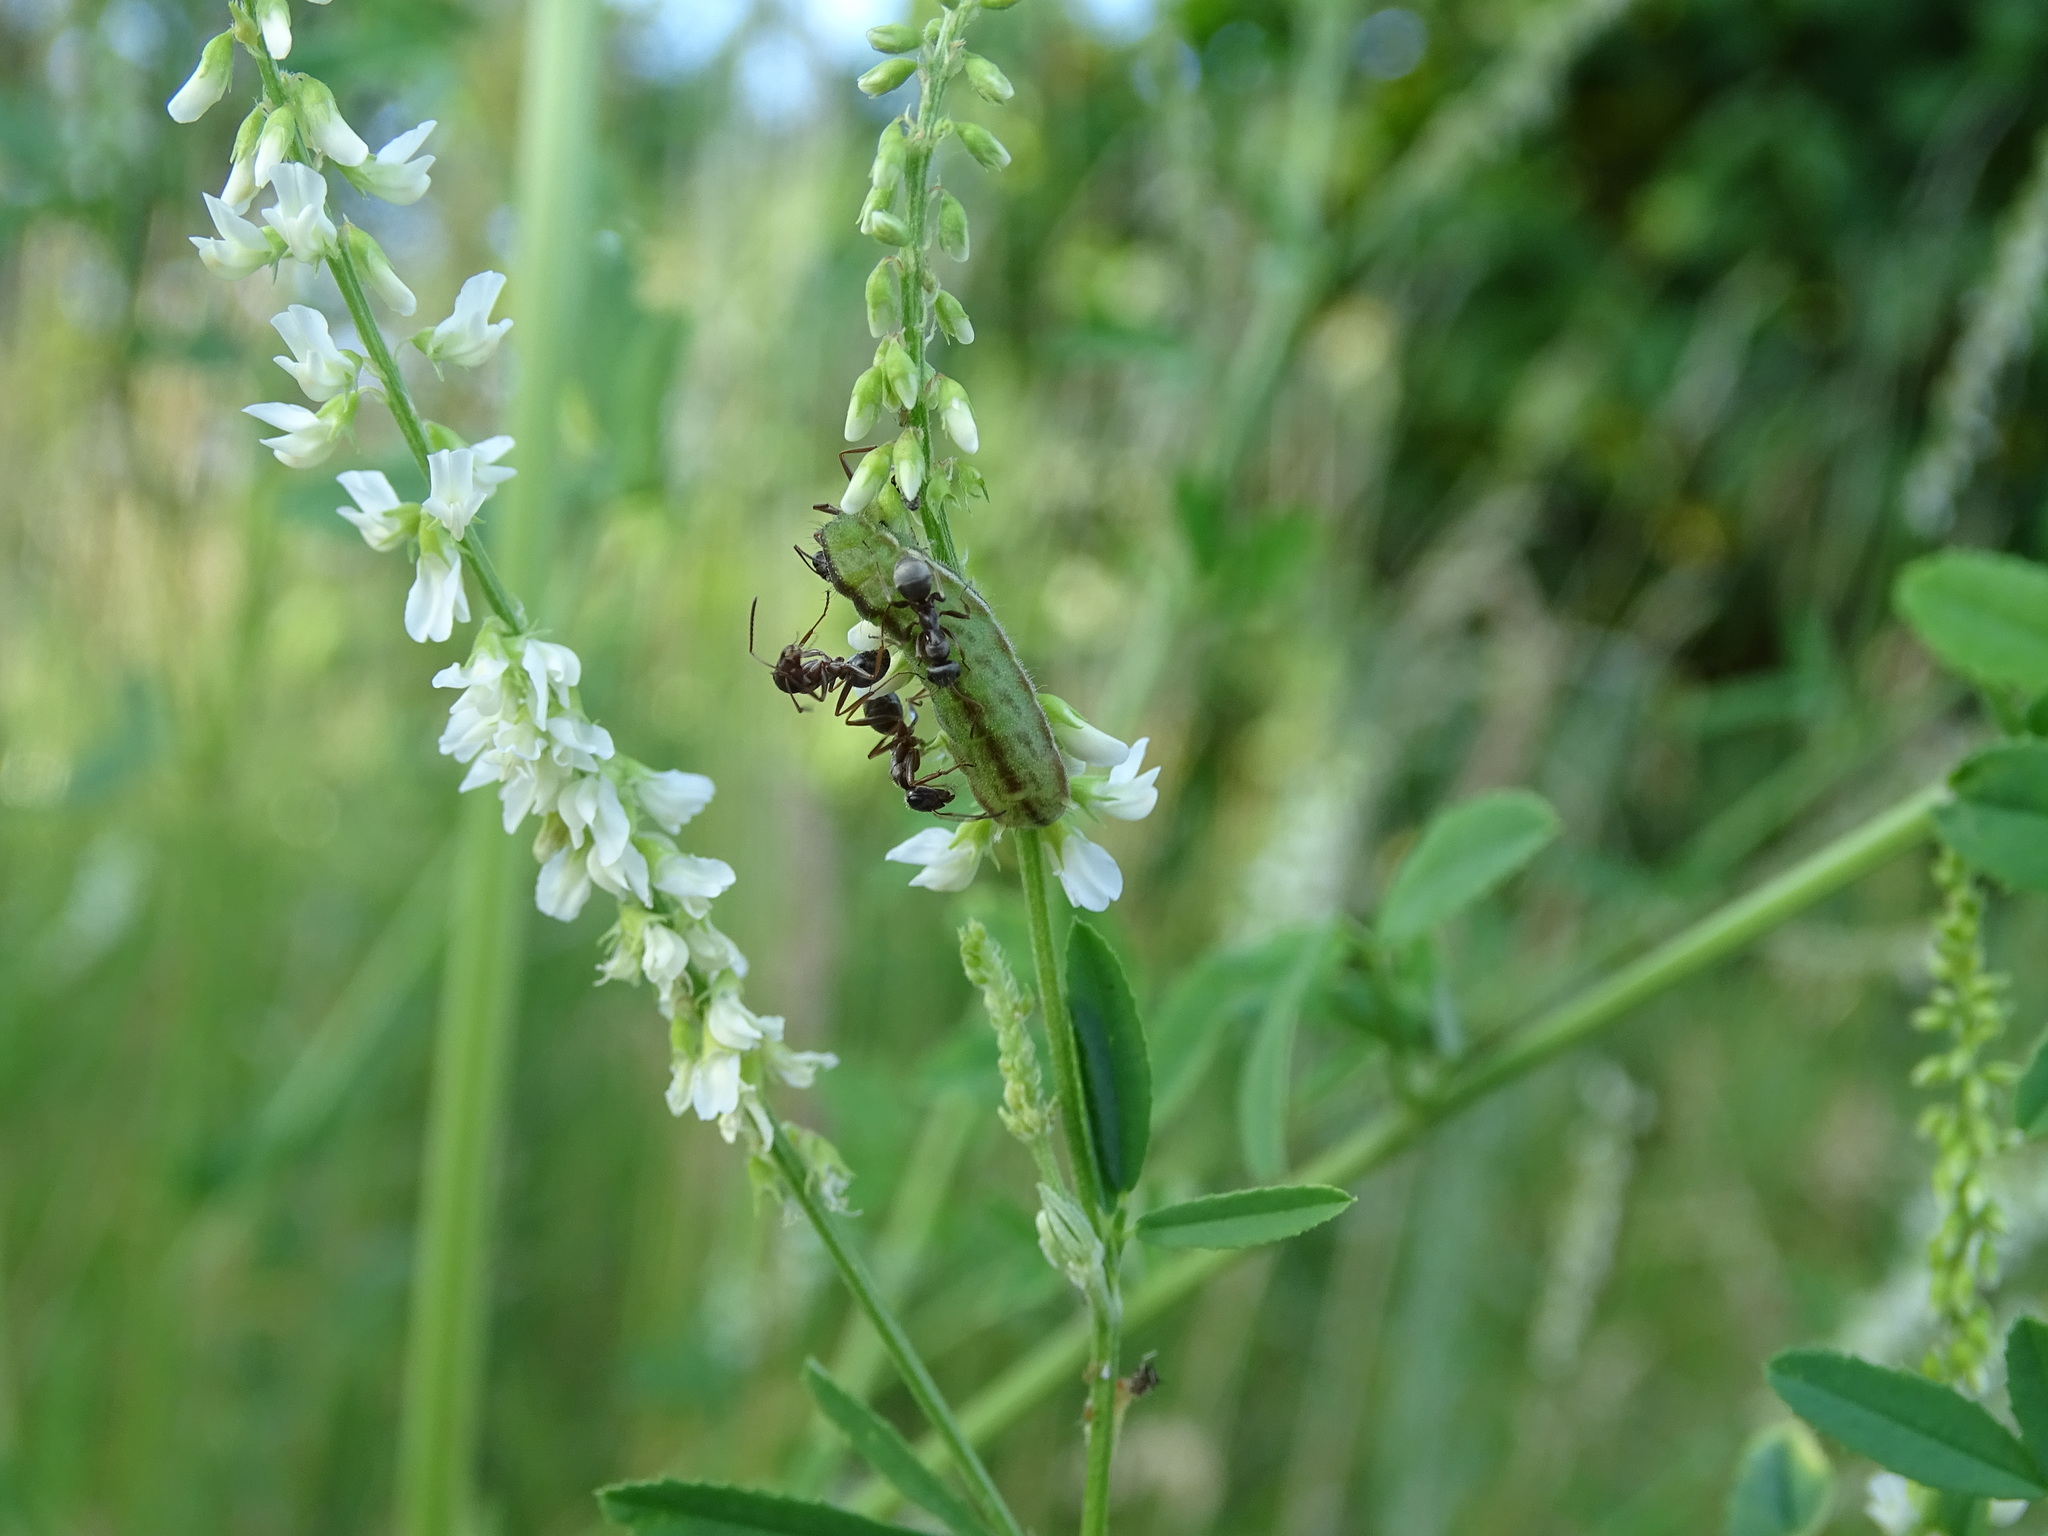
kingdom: Animalia
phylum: Arthropoda
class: Insecta
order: Lepidoptera
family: Lycaenidae
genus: Lycaeides
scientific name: Lycaeides idas
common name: Northern blue
